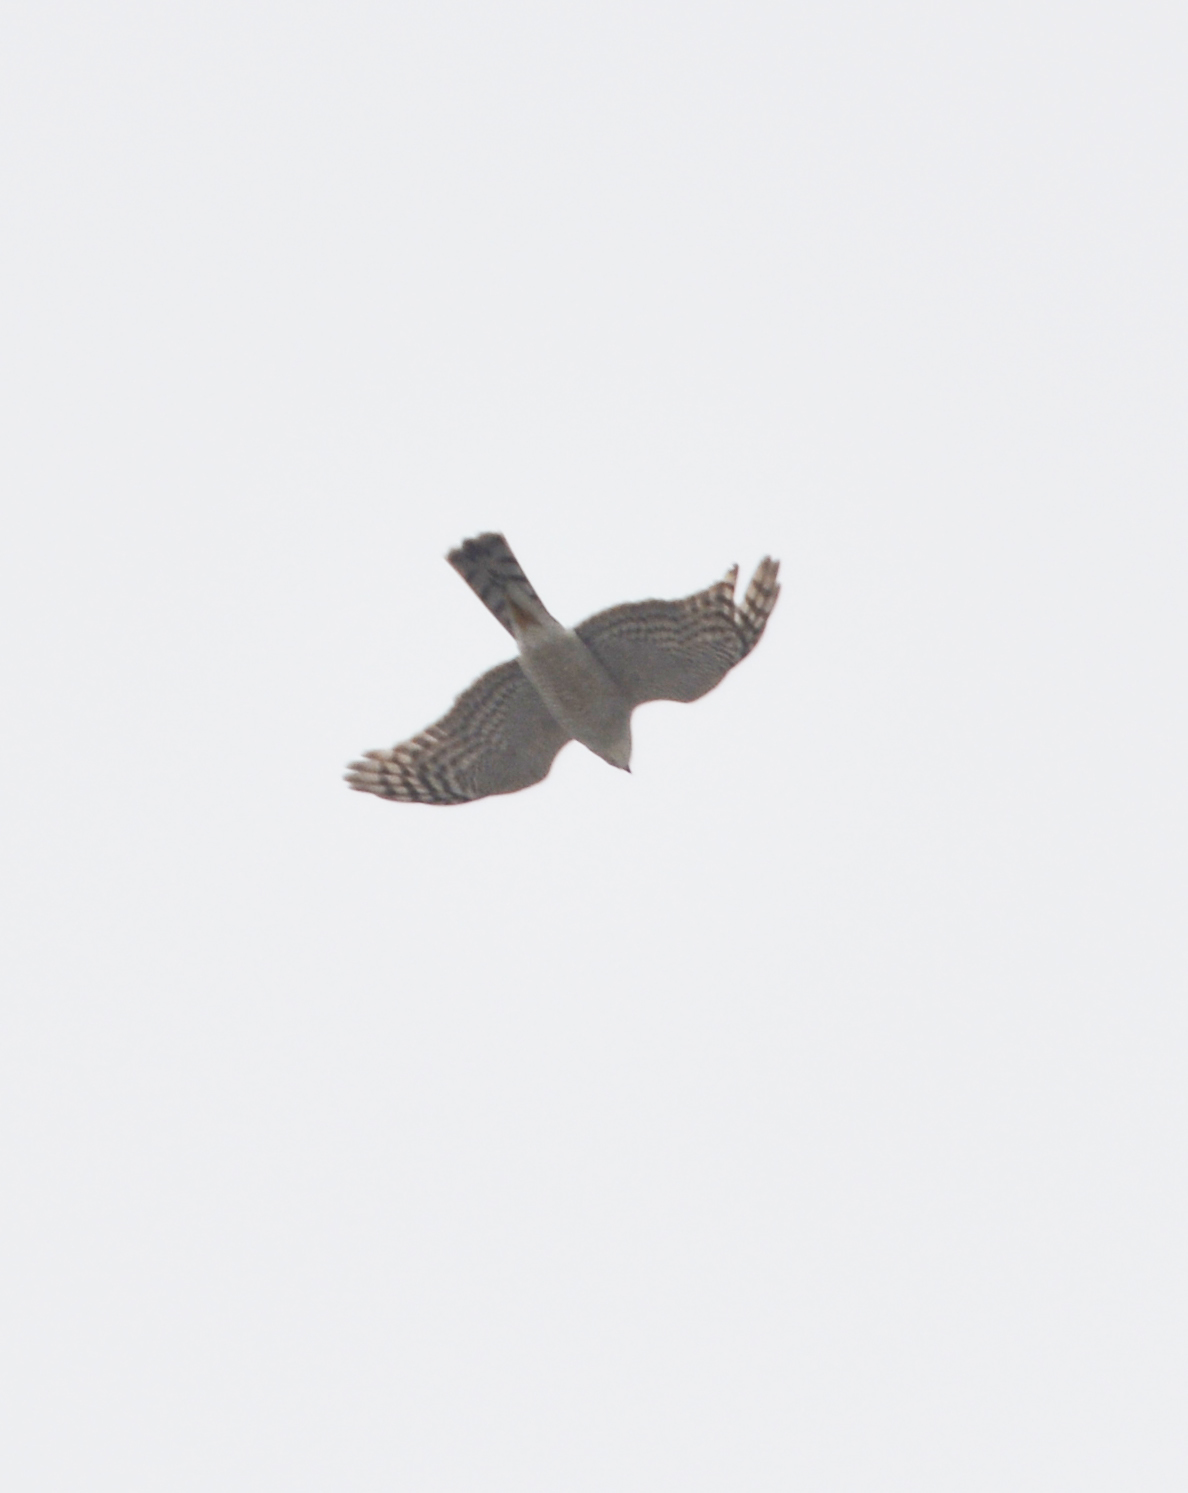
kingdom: Animalia
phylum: Chordata
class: Aves
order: Accipitriformes
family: Accipitridae
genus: Accipiter
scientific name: Accipiter nisus
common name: Eurasian sparrowhawk
